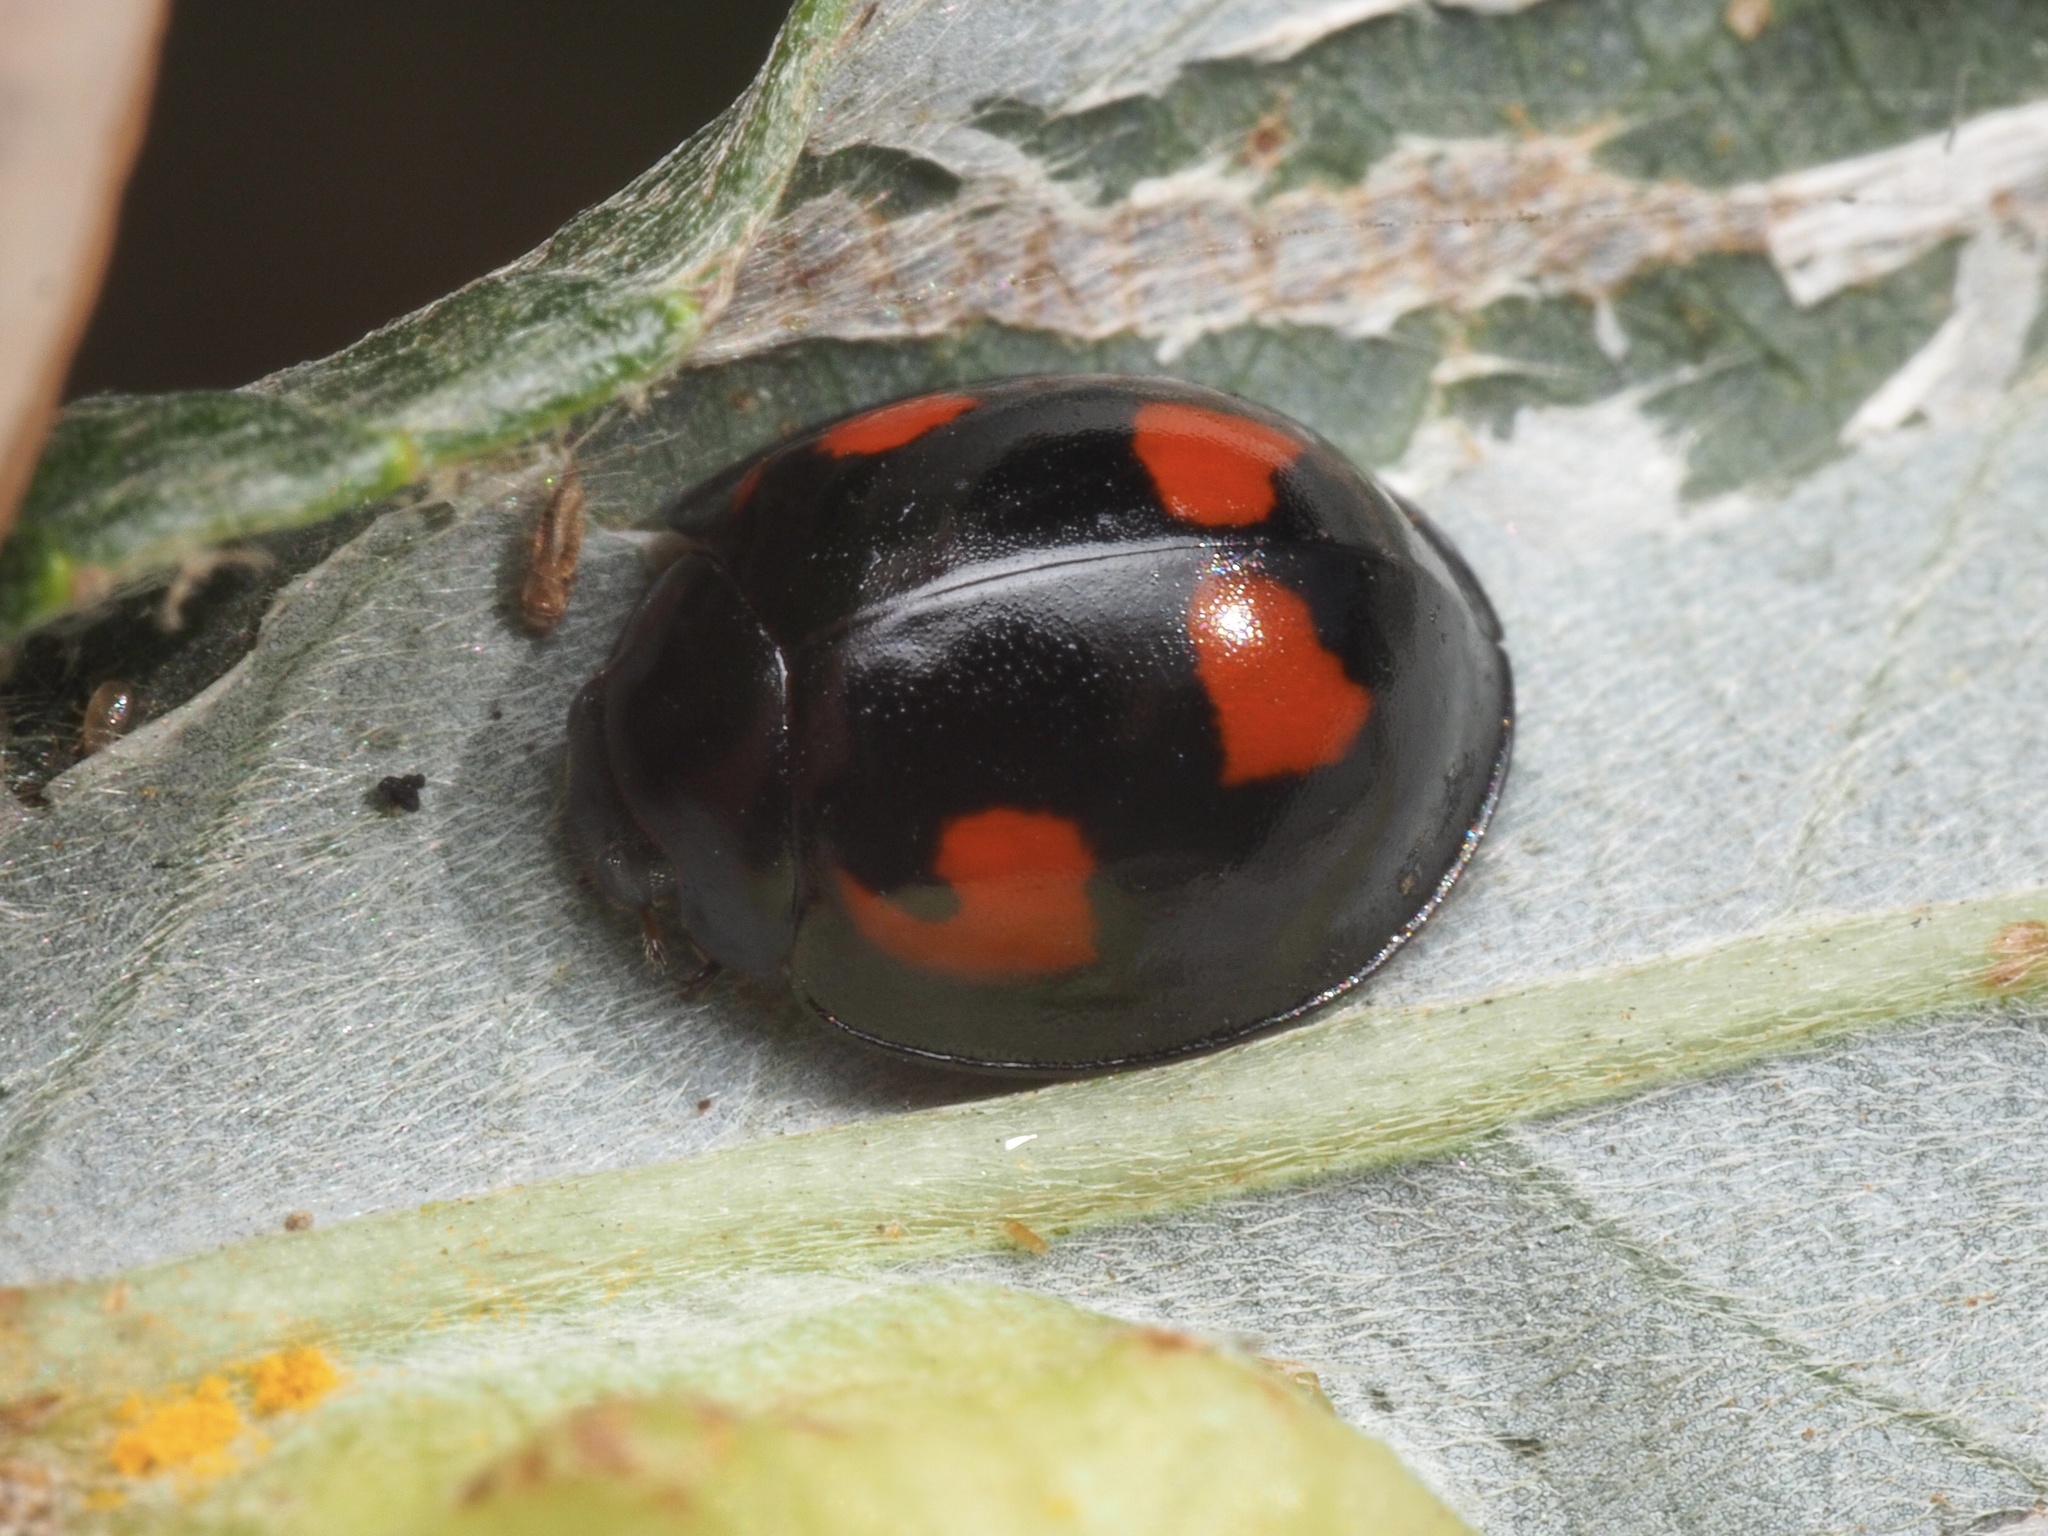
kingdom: Animalia
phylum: Arthropoda
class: Insecta
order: Coleoptera
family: Coccinellidae
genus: Brumus
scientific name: Brumus quadripustulatus
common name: Ladybird beetle
